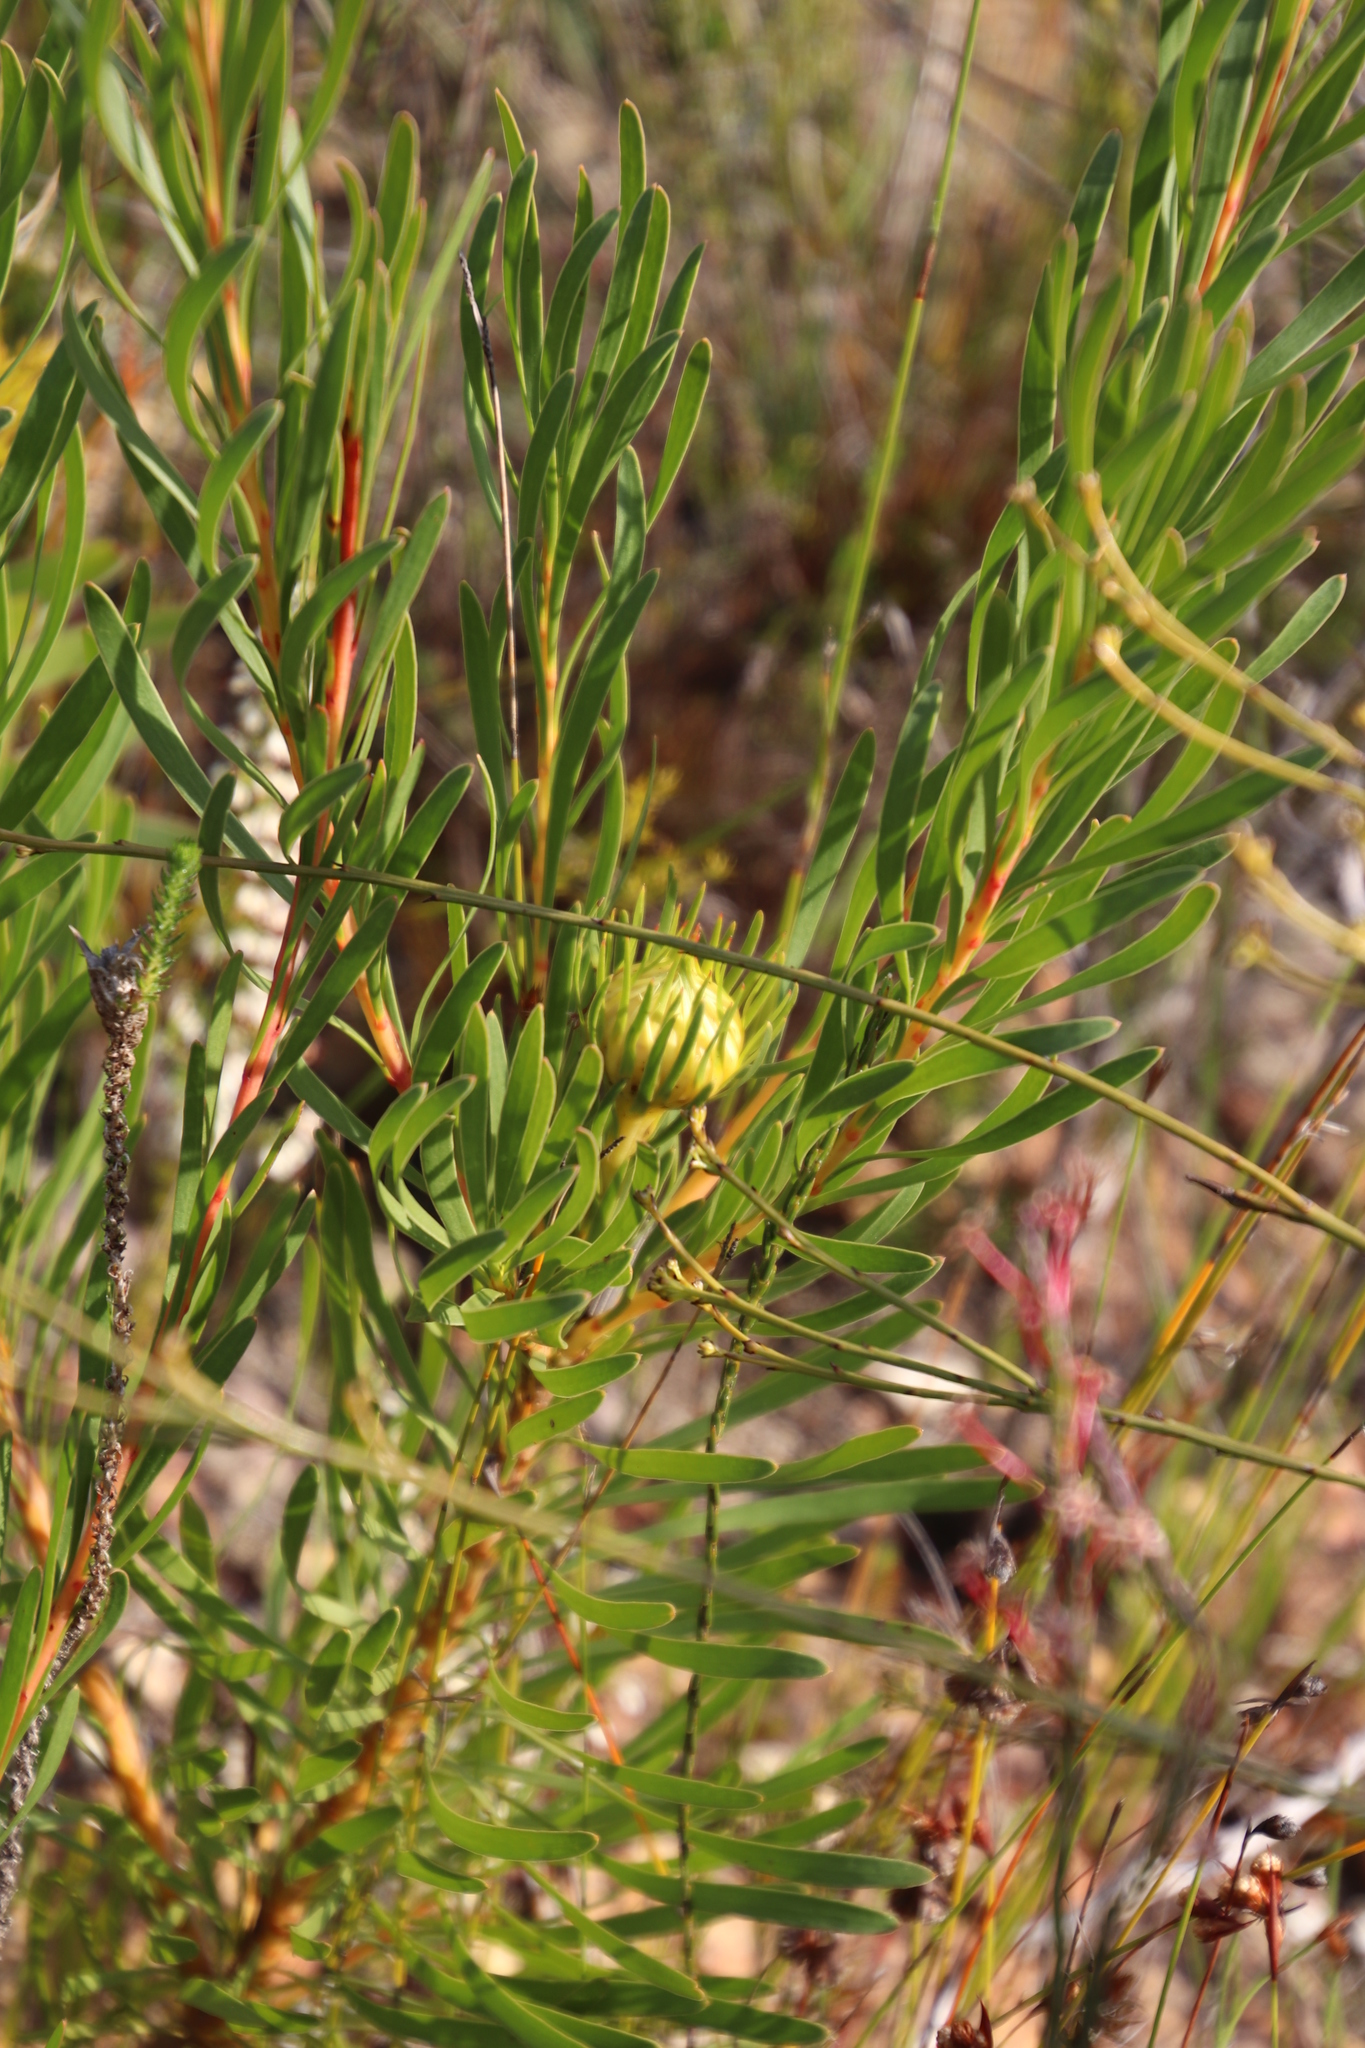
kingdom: Plantae
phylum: Tracheophyta
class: Magnoliopsida
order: Proteales
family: Proteaceae
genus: Aulax
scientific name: Aulax umbellata
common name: Broad-leaf featherbush
